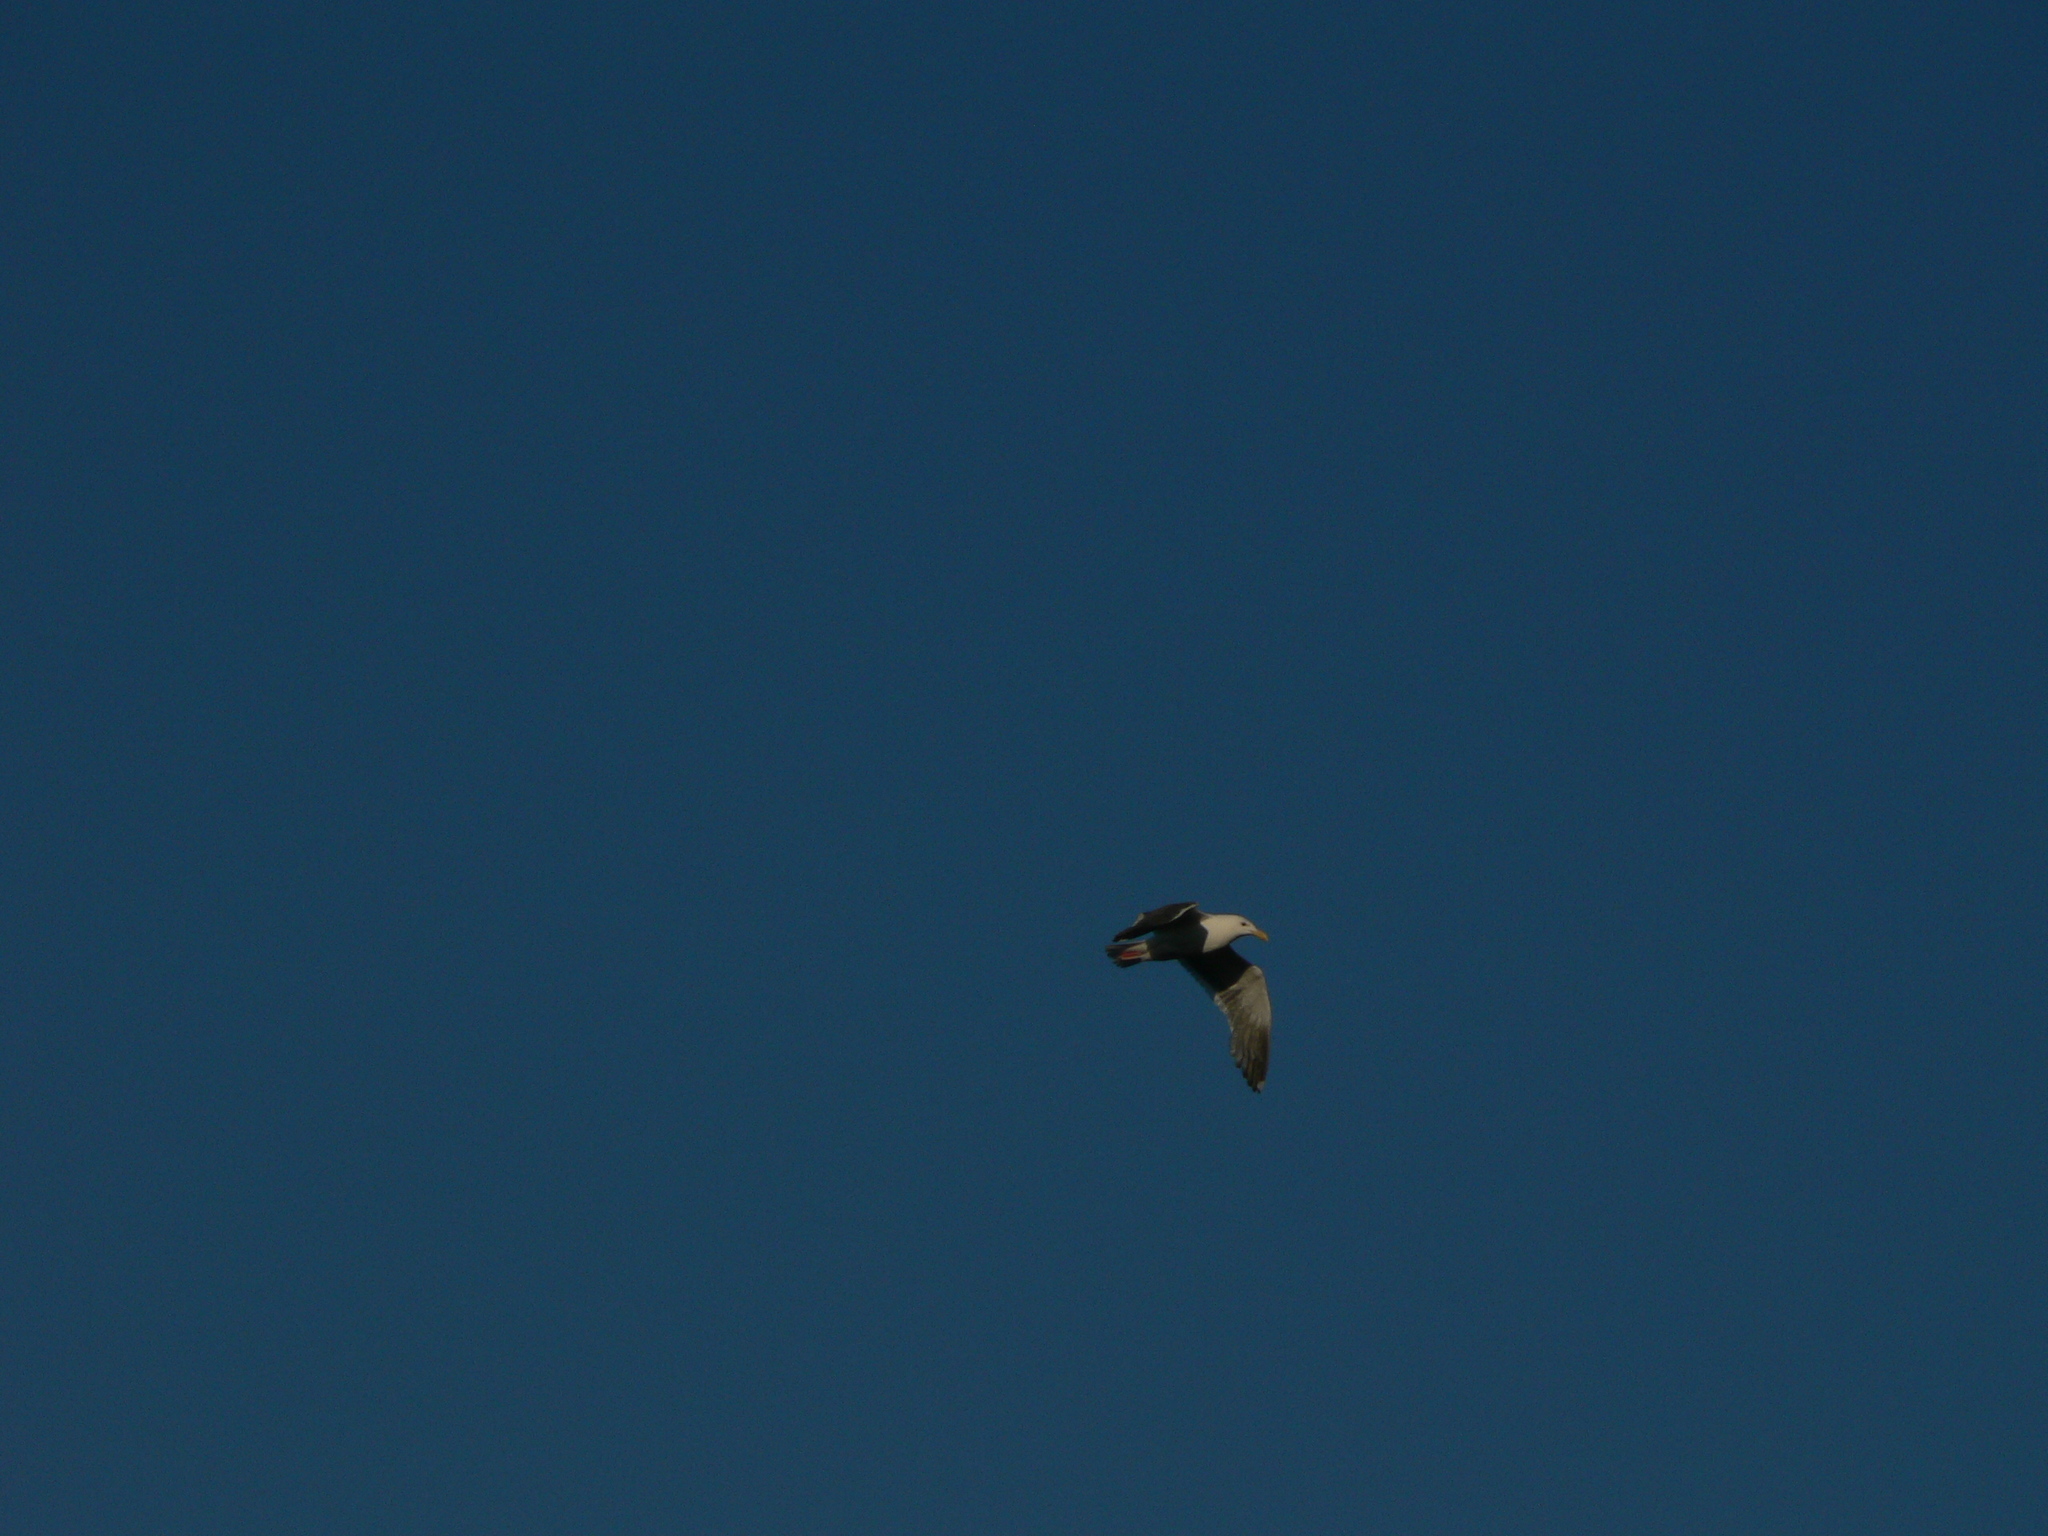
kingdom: Animalia
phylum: Chordata
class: Aves
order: Charadriiformes
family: Laridae
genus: Larus
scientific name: Larus occidentalis
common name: Western gull
